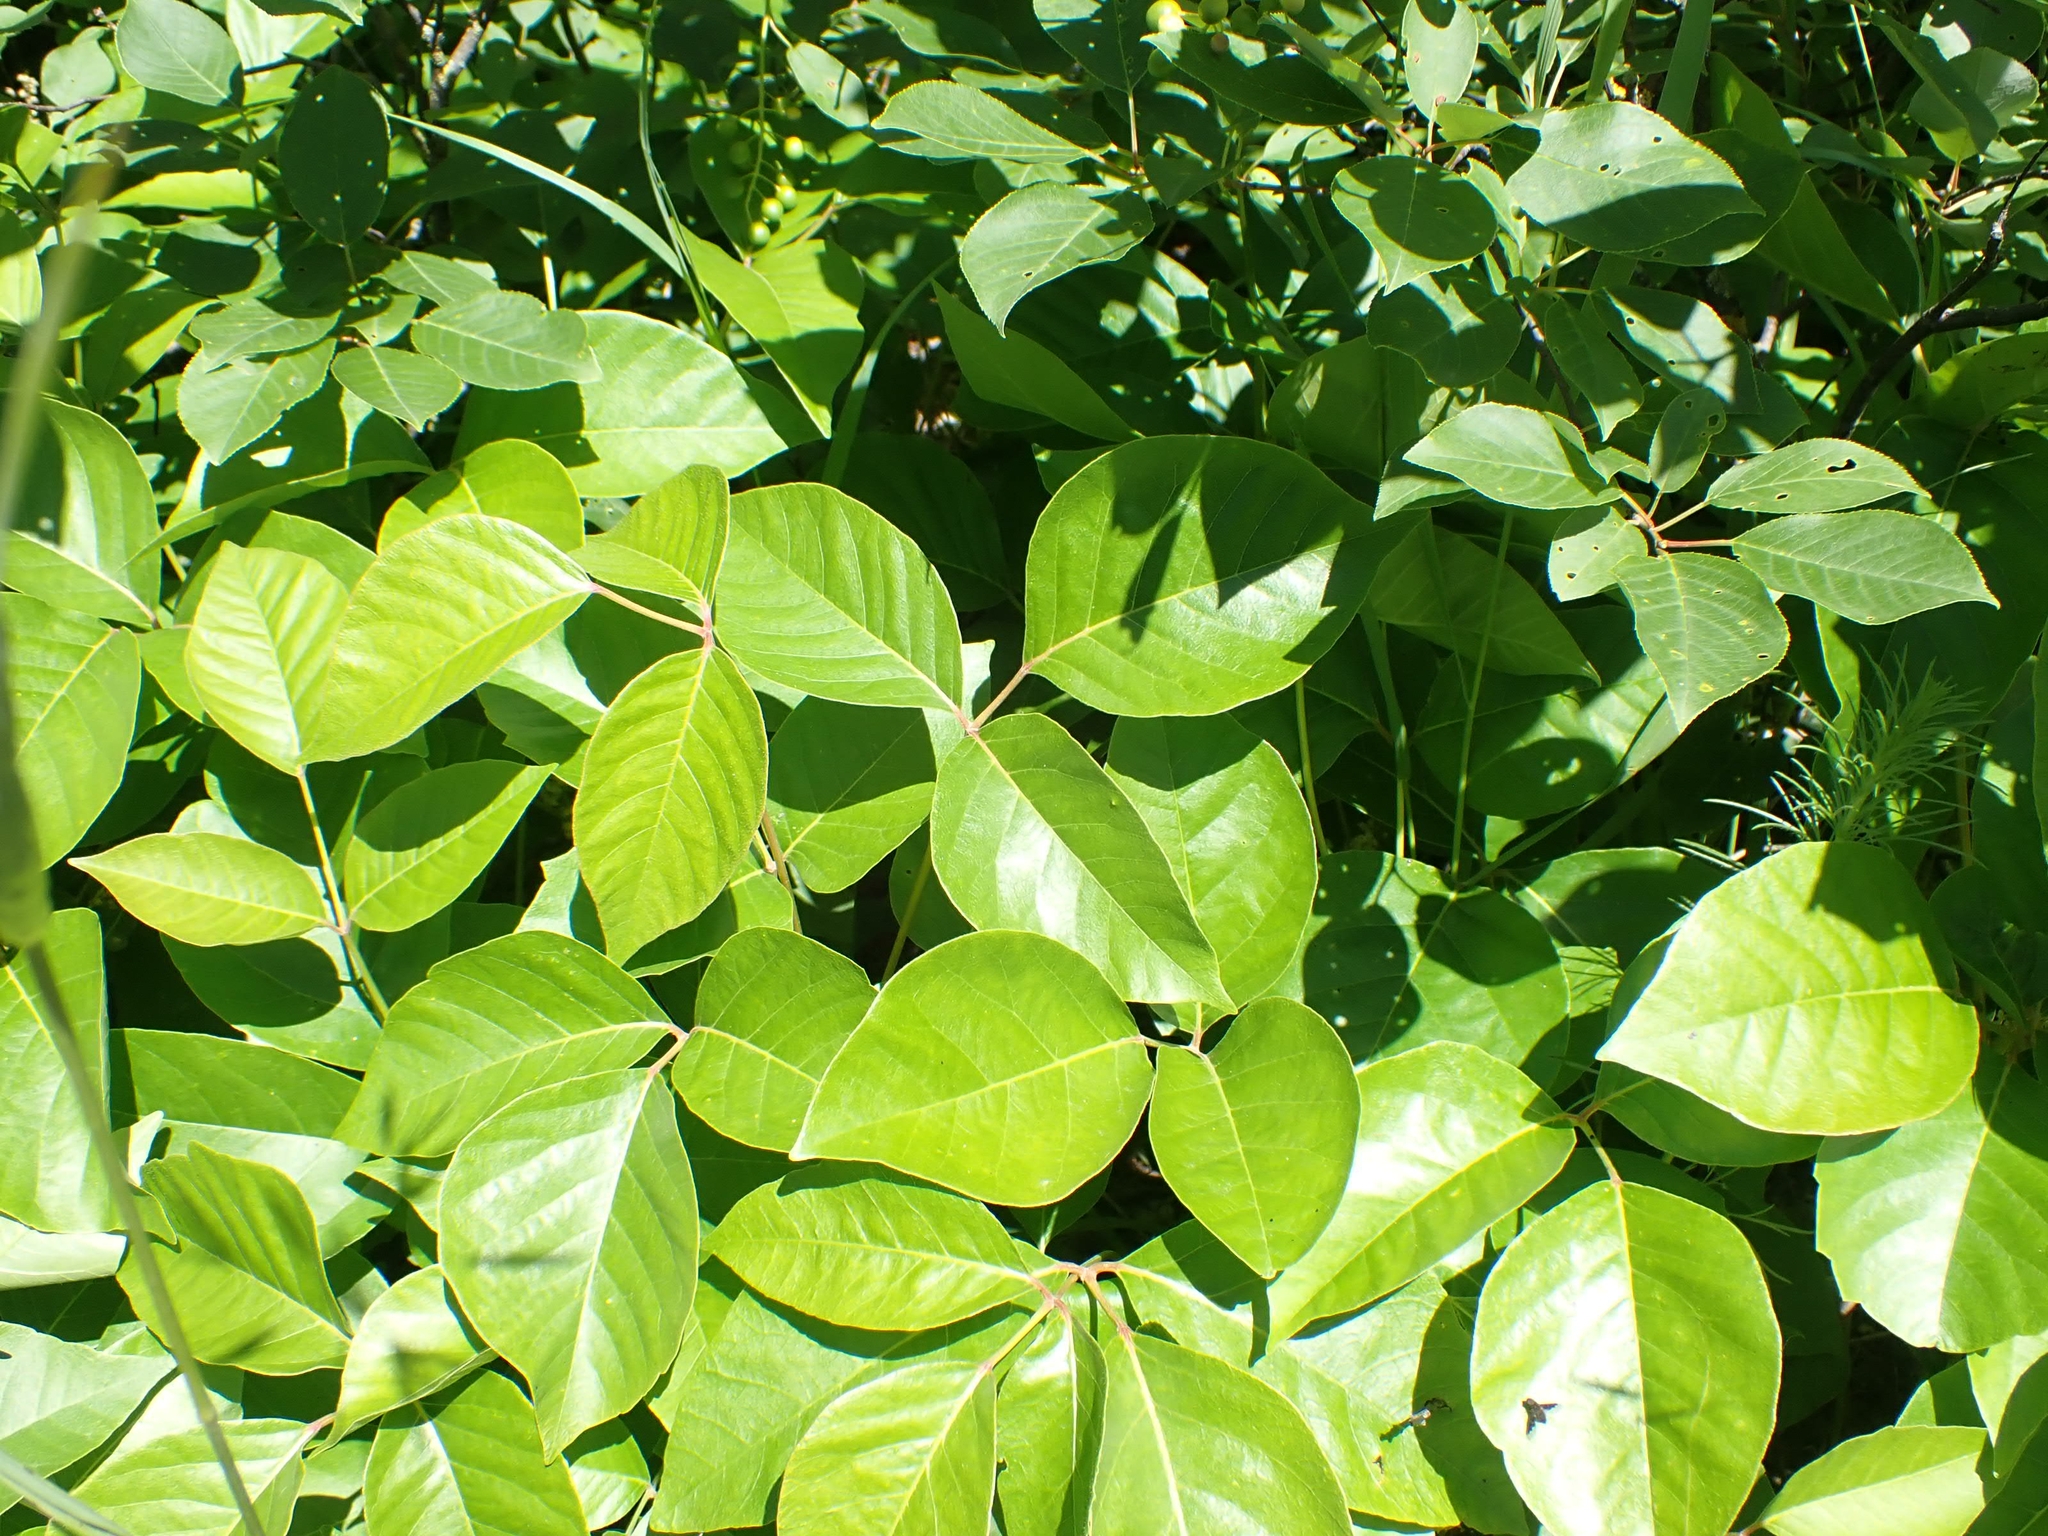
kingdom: Plantae
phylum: Tracheophyta
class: Magnoliopsida
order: Sapindales
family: Anacardiaceae
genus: Toxicodendron
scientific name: Toxicodendron rydbergii
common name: Rydberg's poison-ivy
